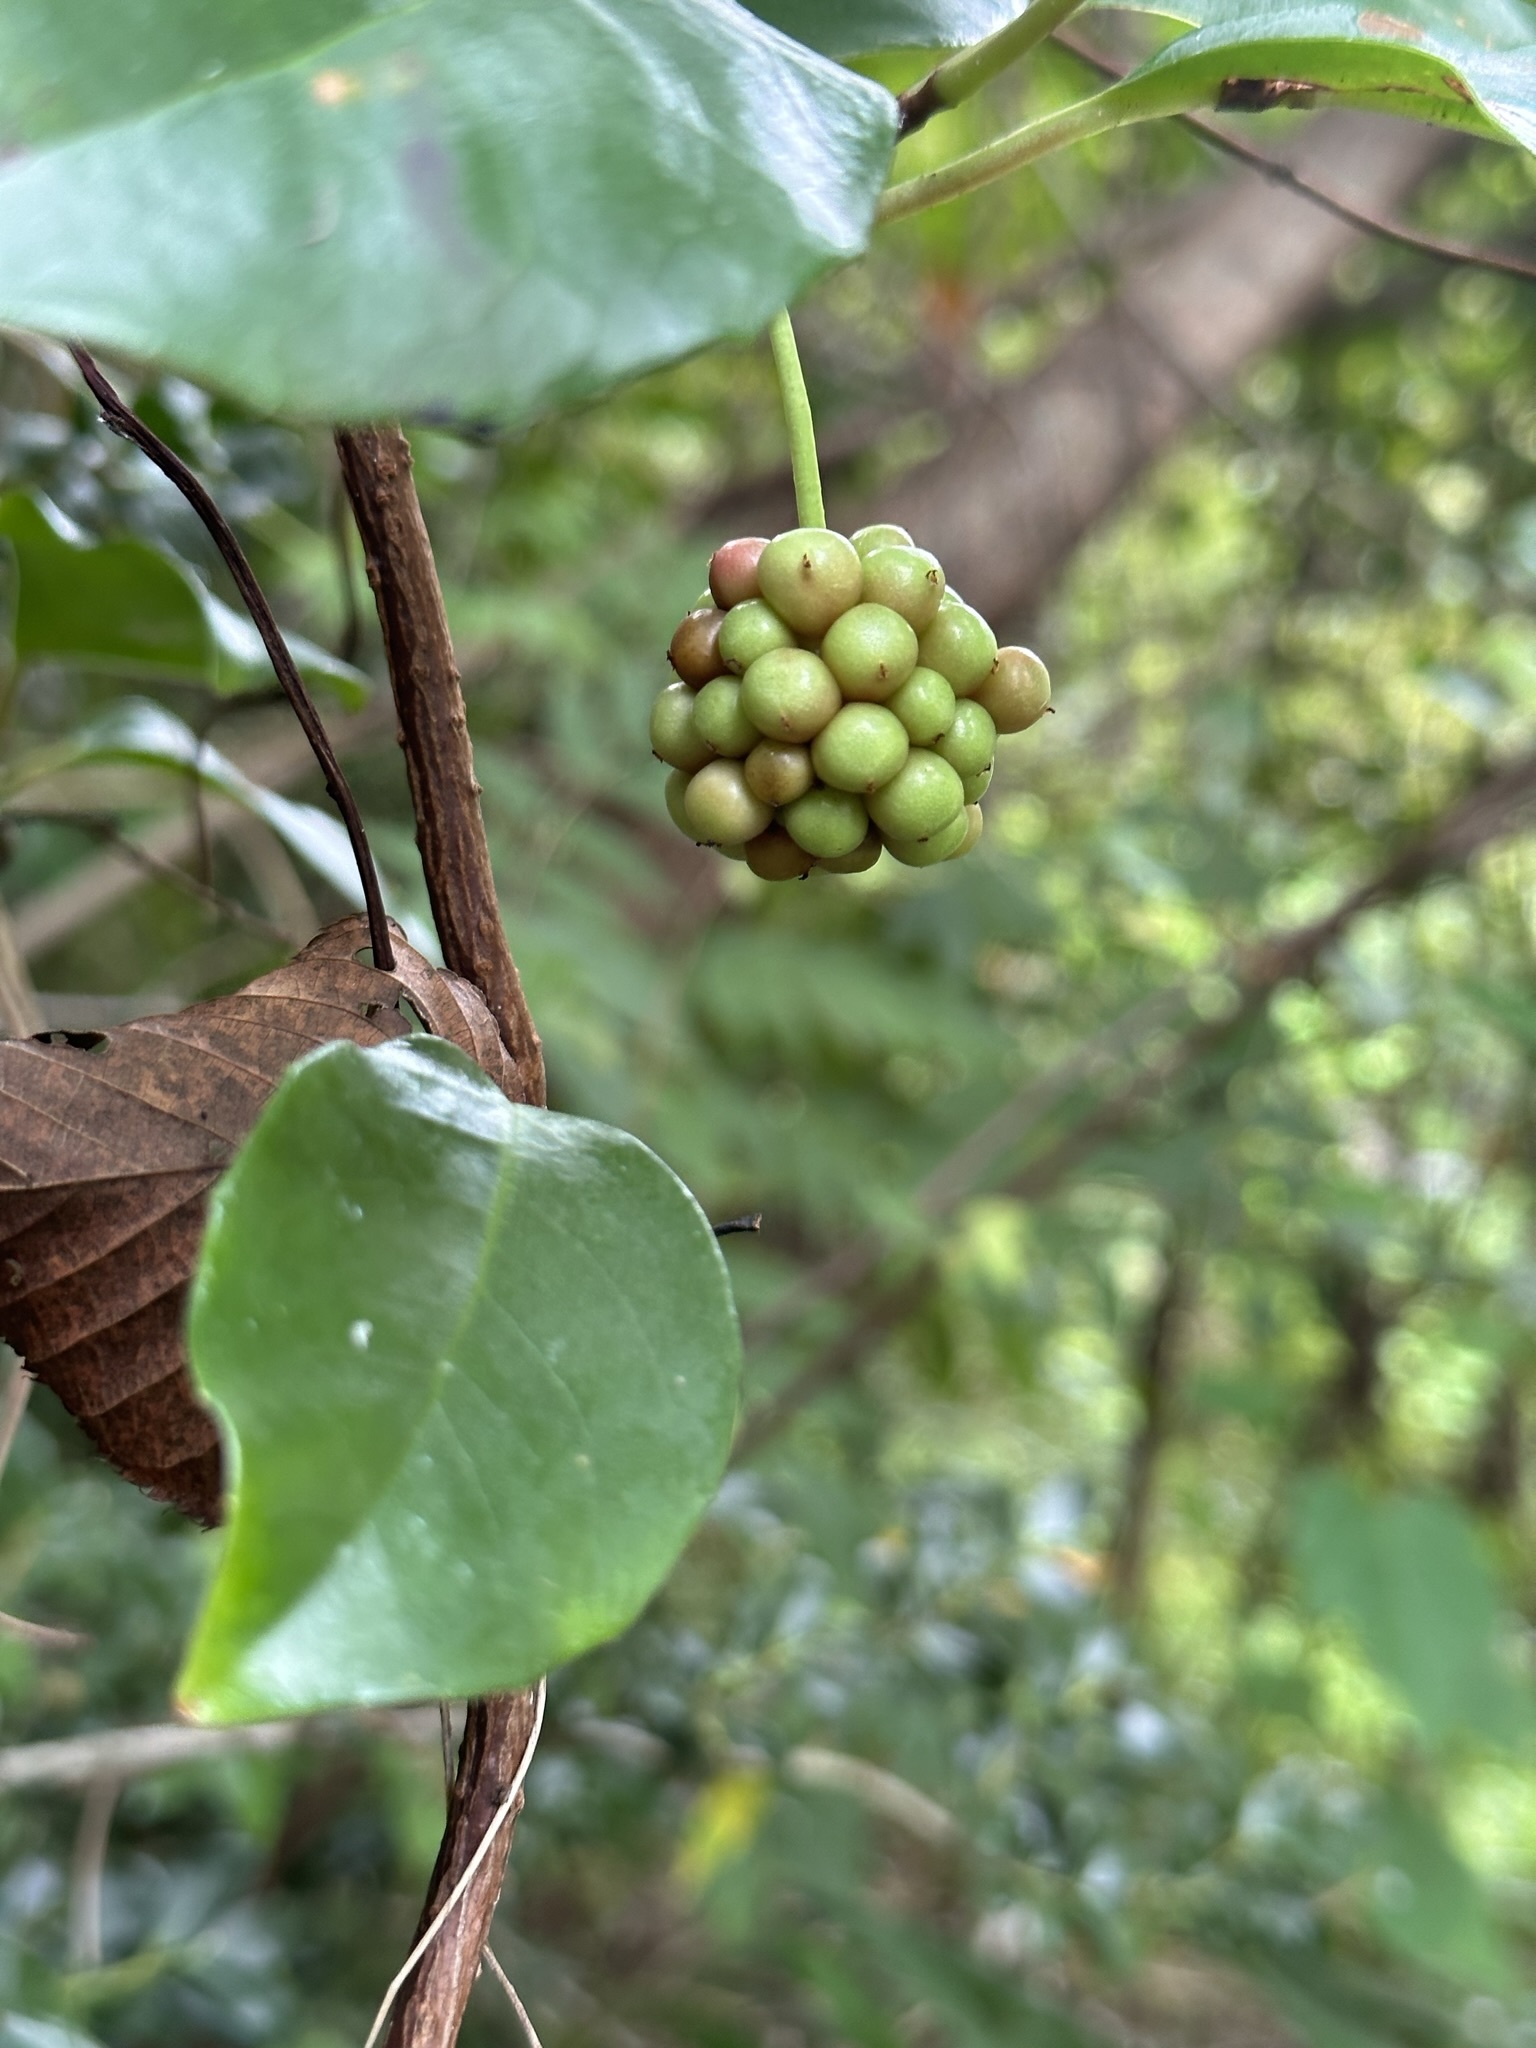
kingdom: Plantae
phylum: Tracheophyta
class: Magnoliopsida
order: Austrobaileyales
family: Schisandraceae
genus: Kadsura
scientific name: Kadsura japonica
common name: Japanese kadsura
